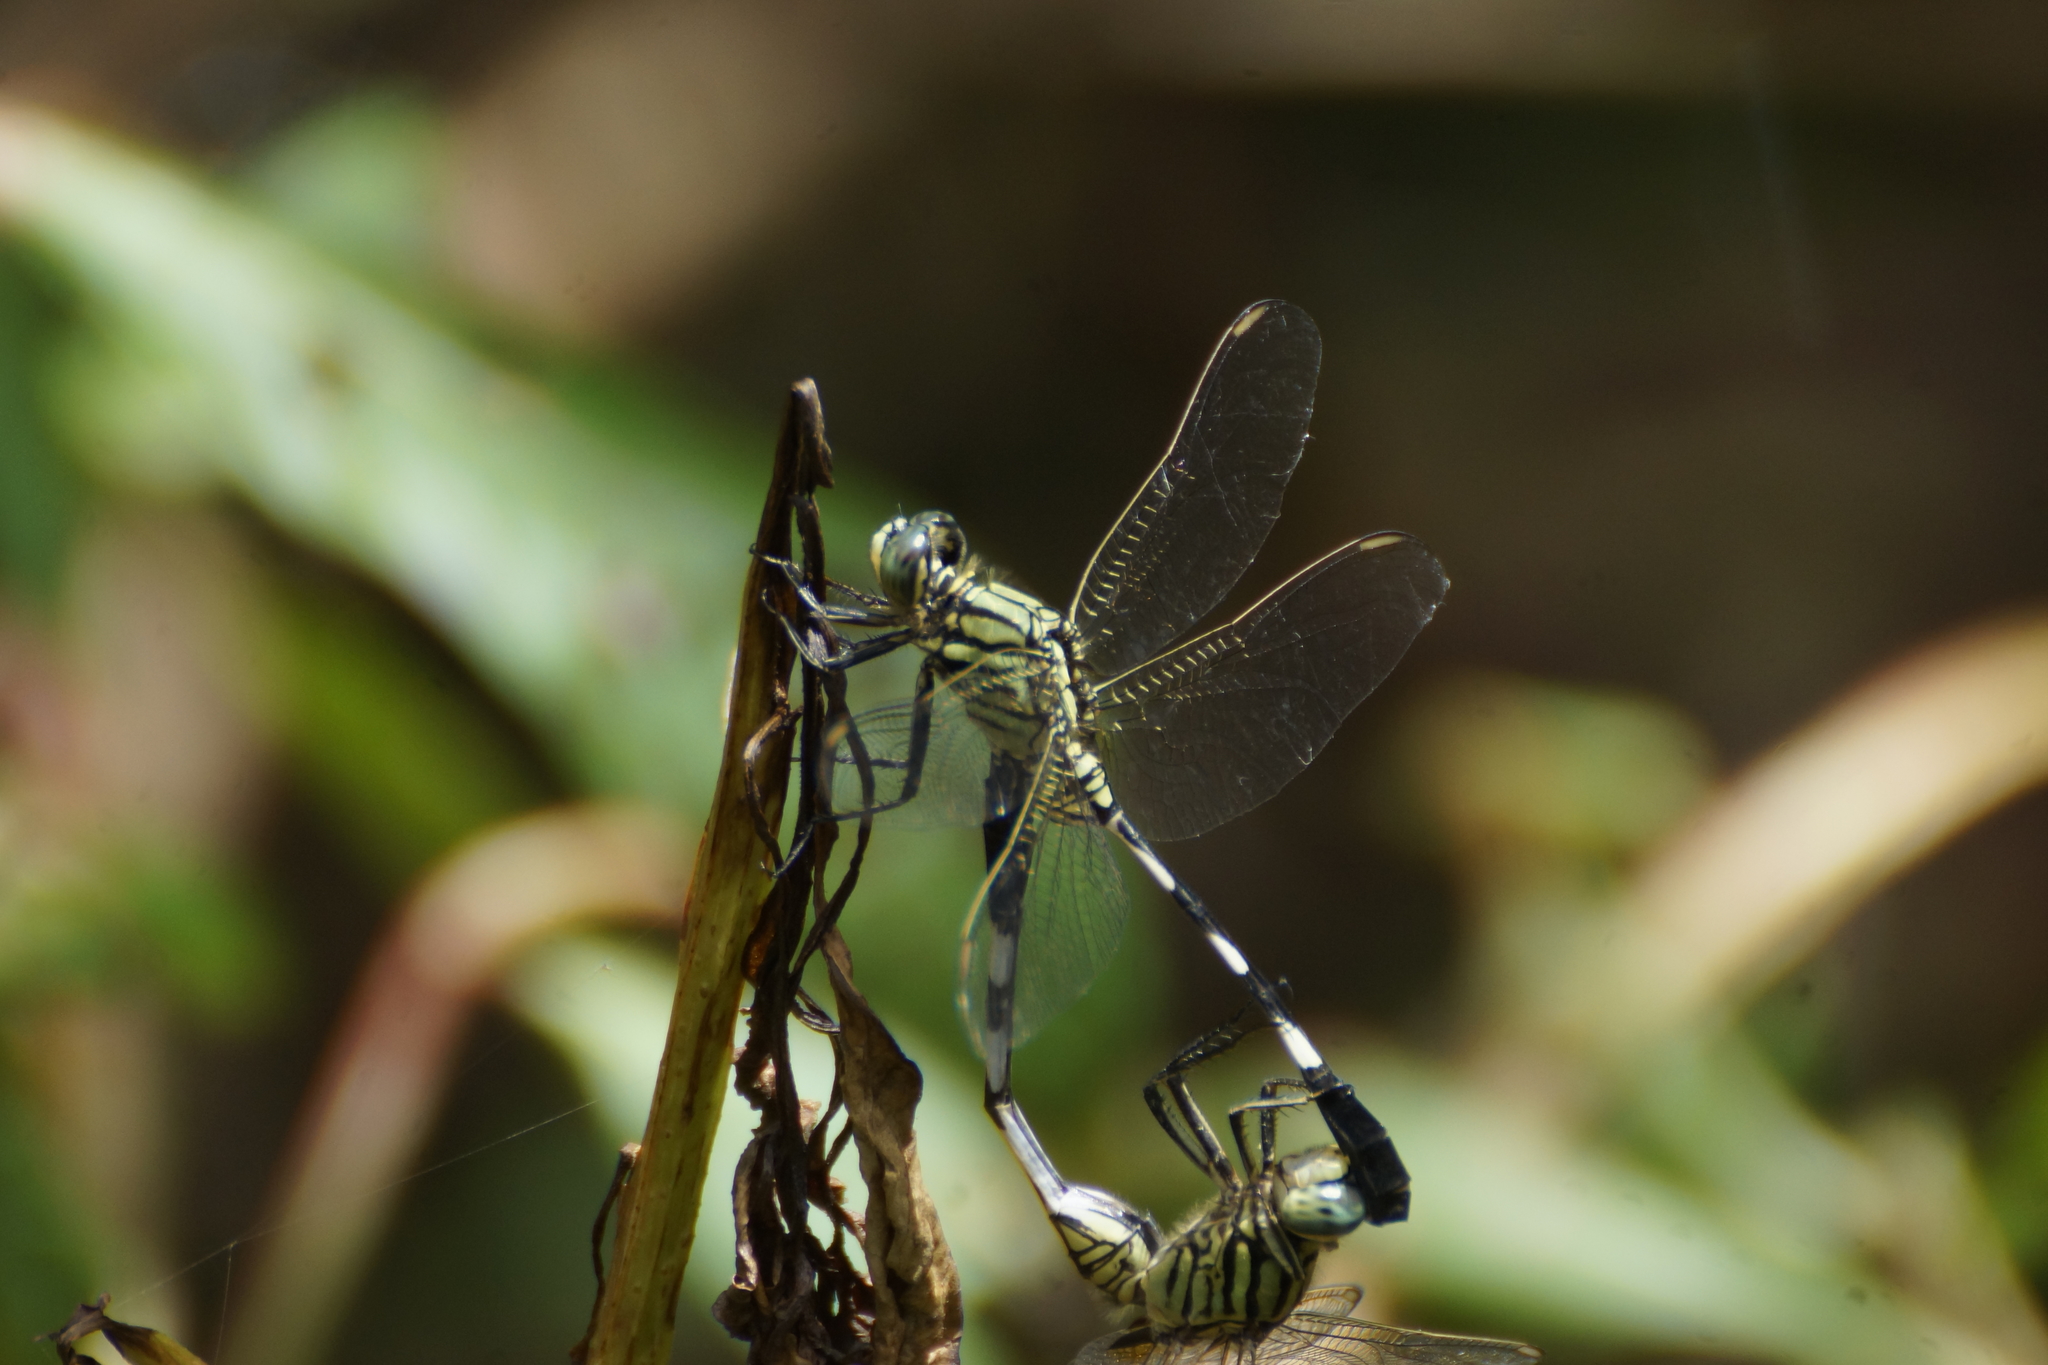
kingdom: Animalia
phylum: Arthropoda
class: Insecta
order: Odonata
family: Libellulidae
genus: Orthetrum
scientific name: Orthetrum sabina
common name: Slender skimmer
